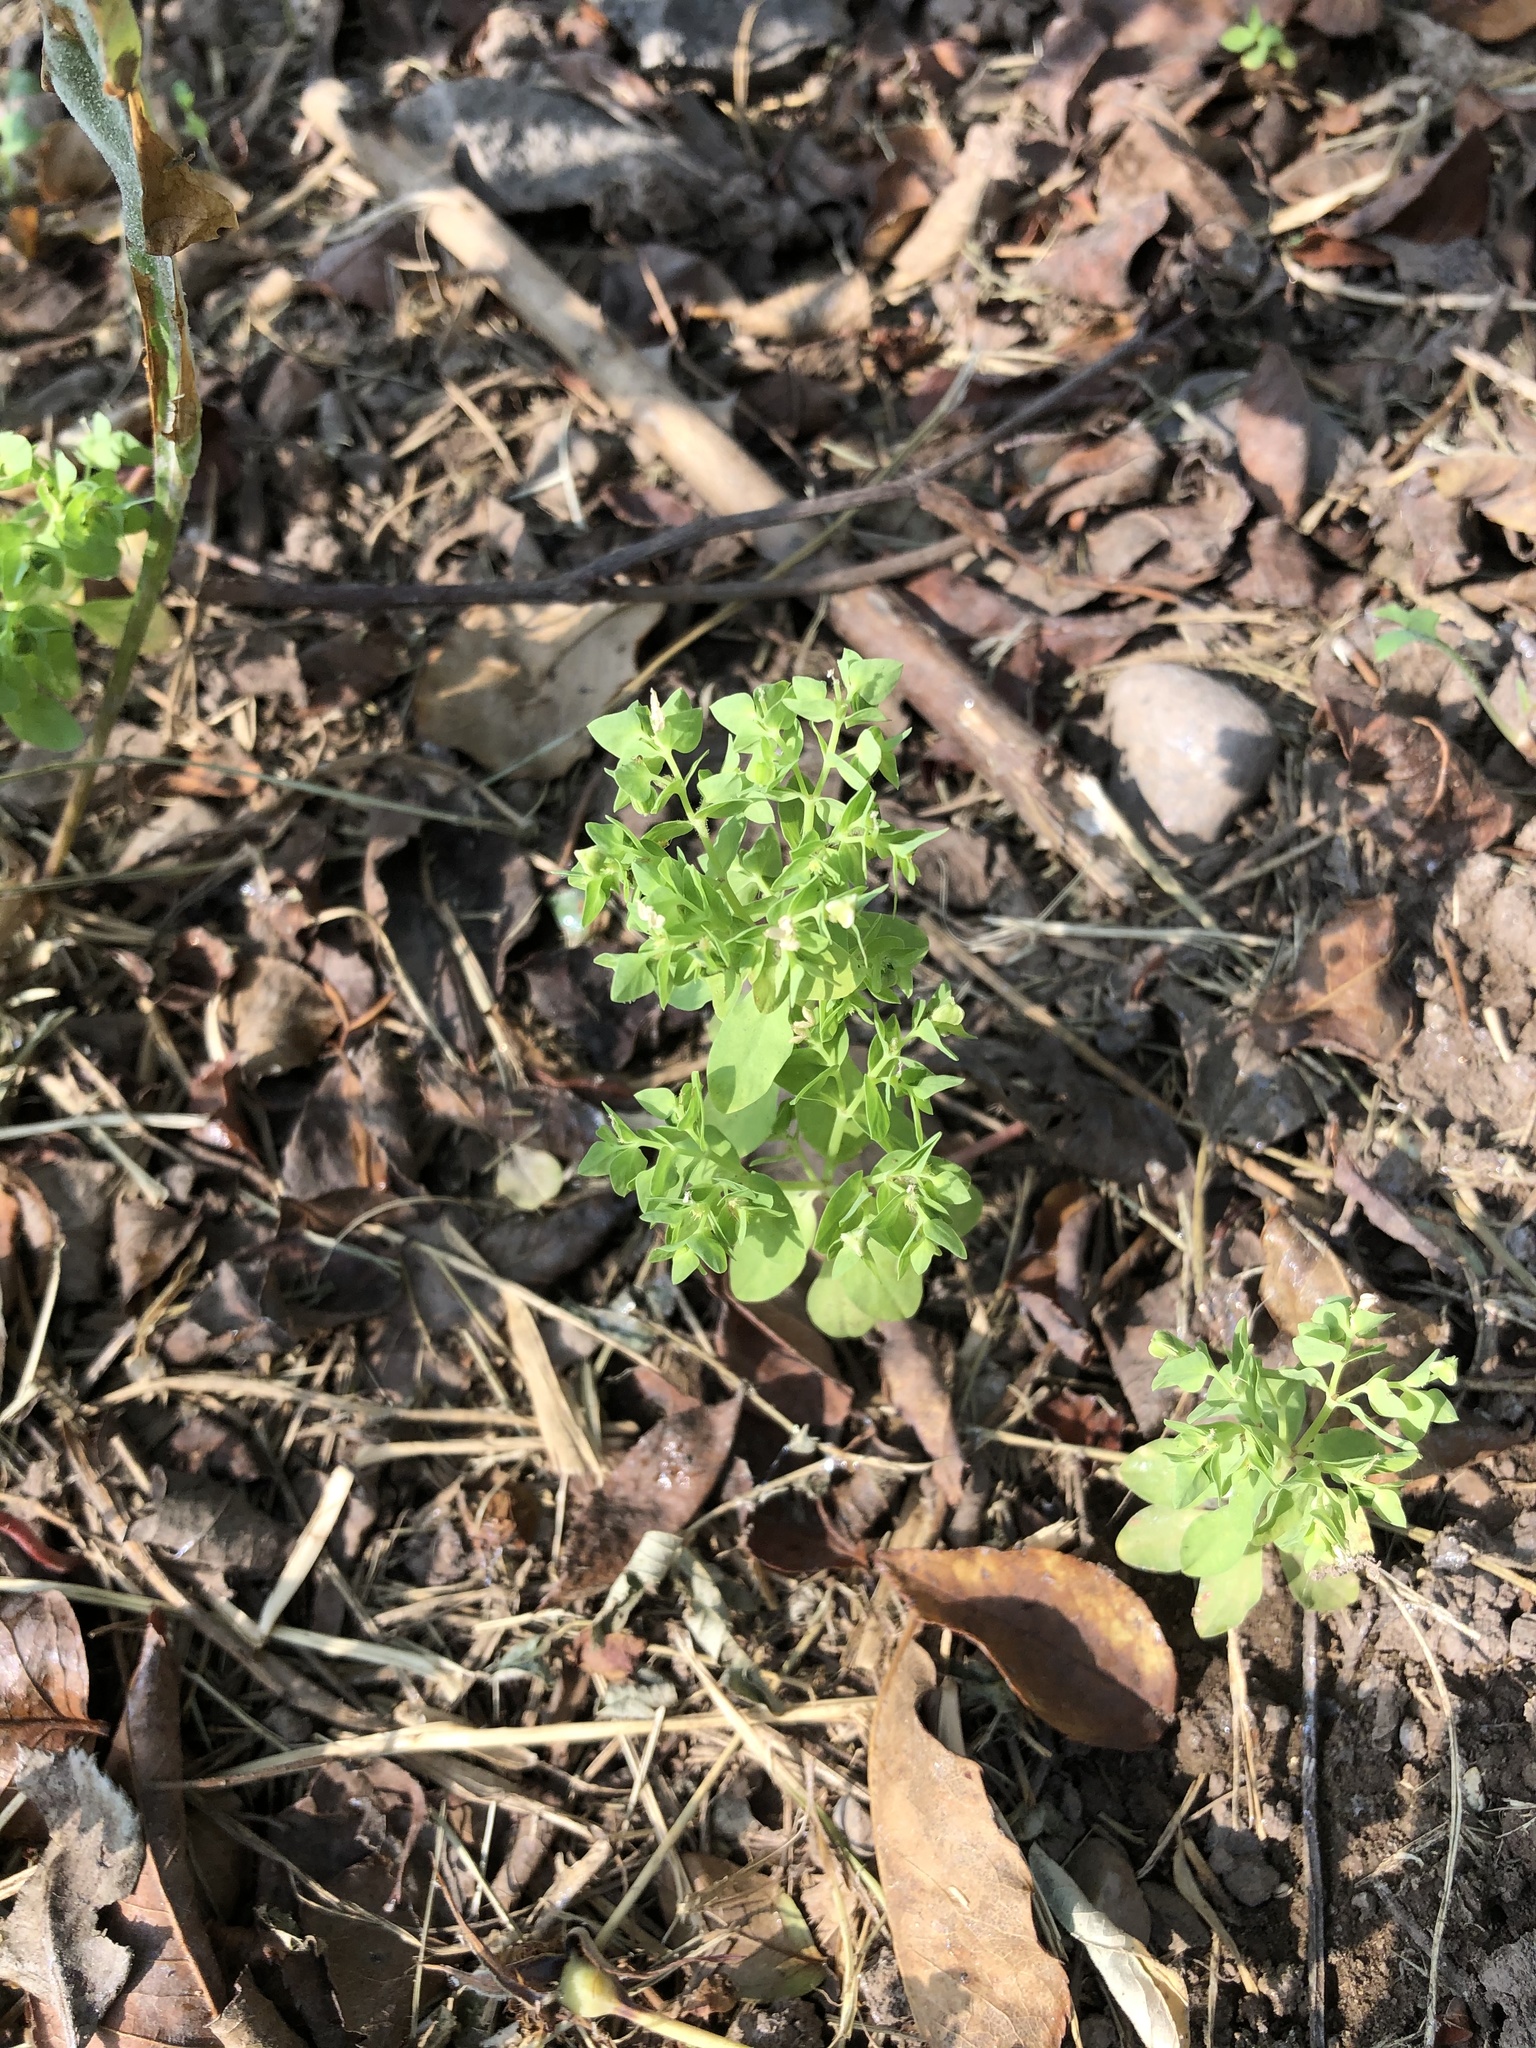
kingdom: Plantae
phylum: Tracheophyta
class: Magnoliopsida
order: Malpighiales
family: Euphorbiaceae
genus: Euphorbia
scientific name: Euphorbia peplus
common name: Petty spurge
